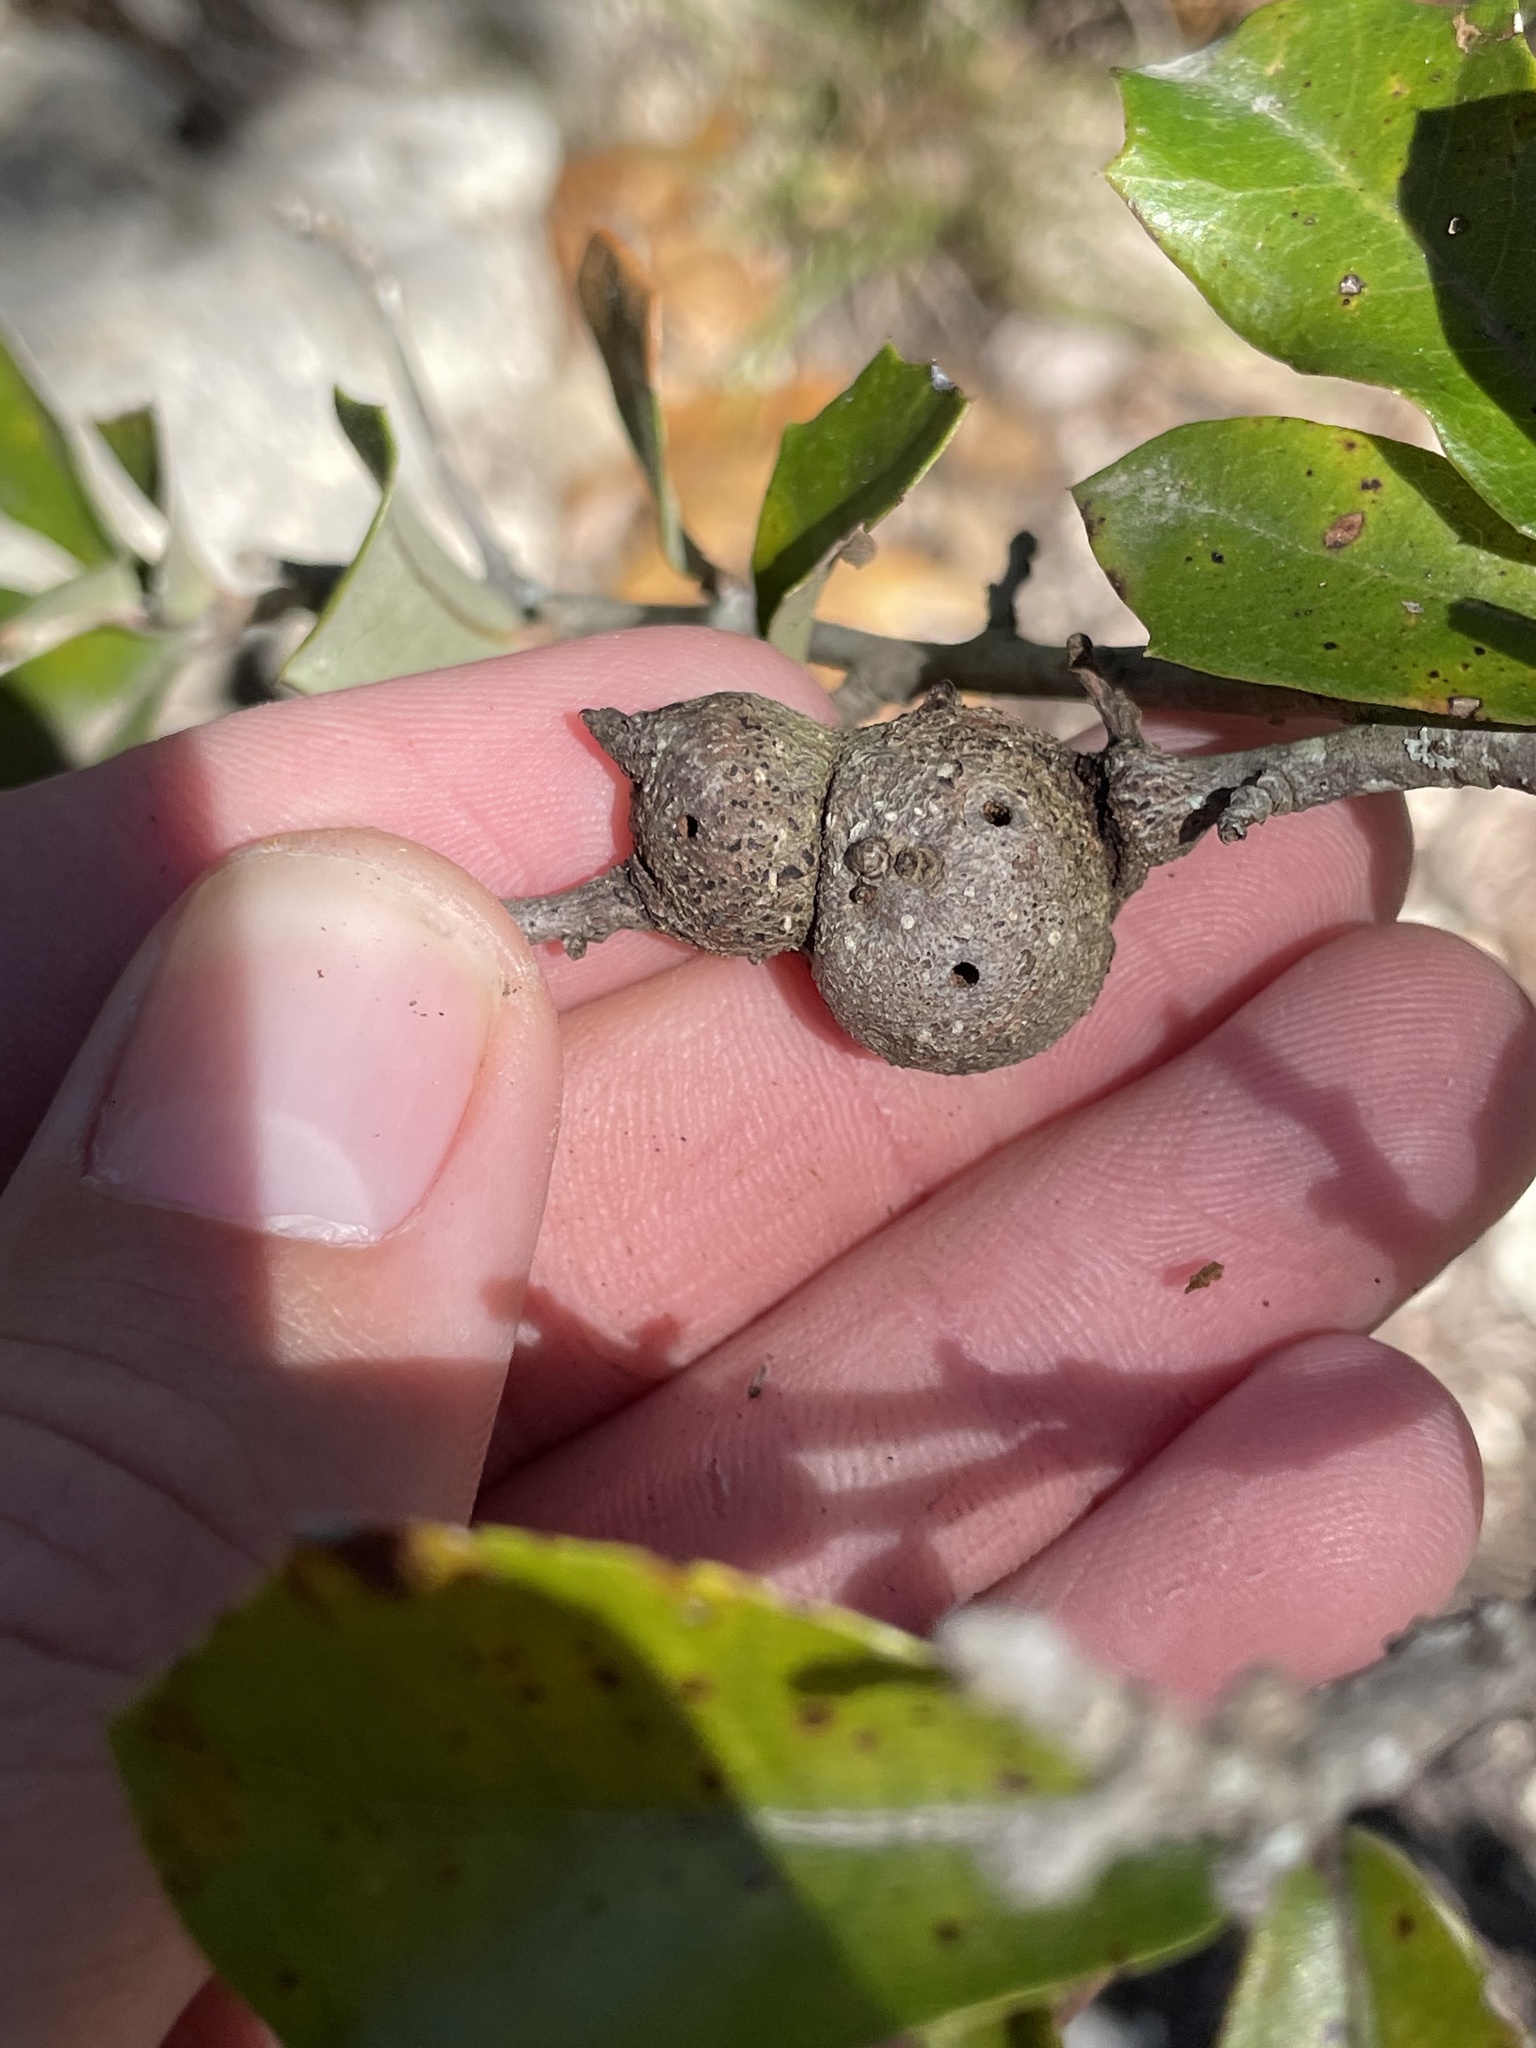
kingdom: Animalia
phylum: Arthropoda
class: Insecta
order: Hymenoptera
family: Cynipidae
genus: Callirhytis
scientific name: Callirhytis
